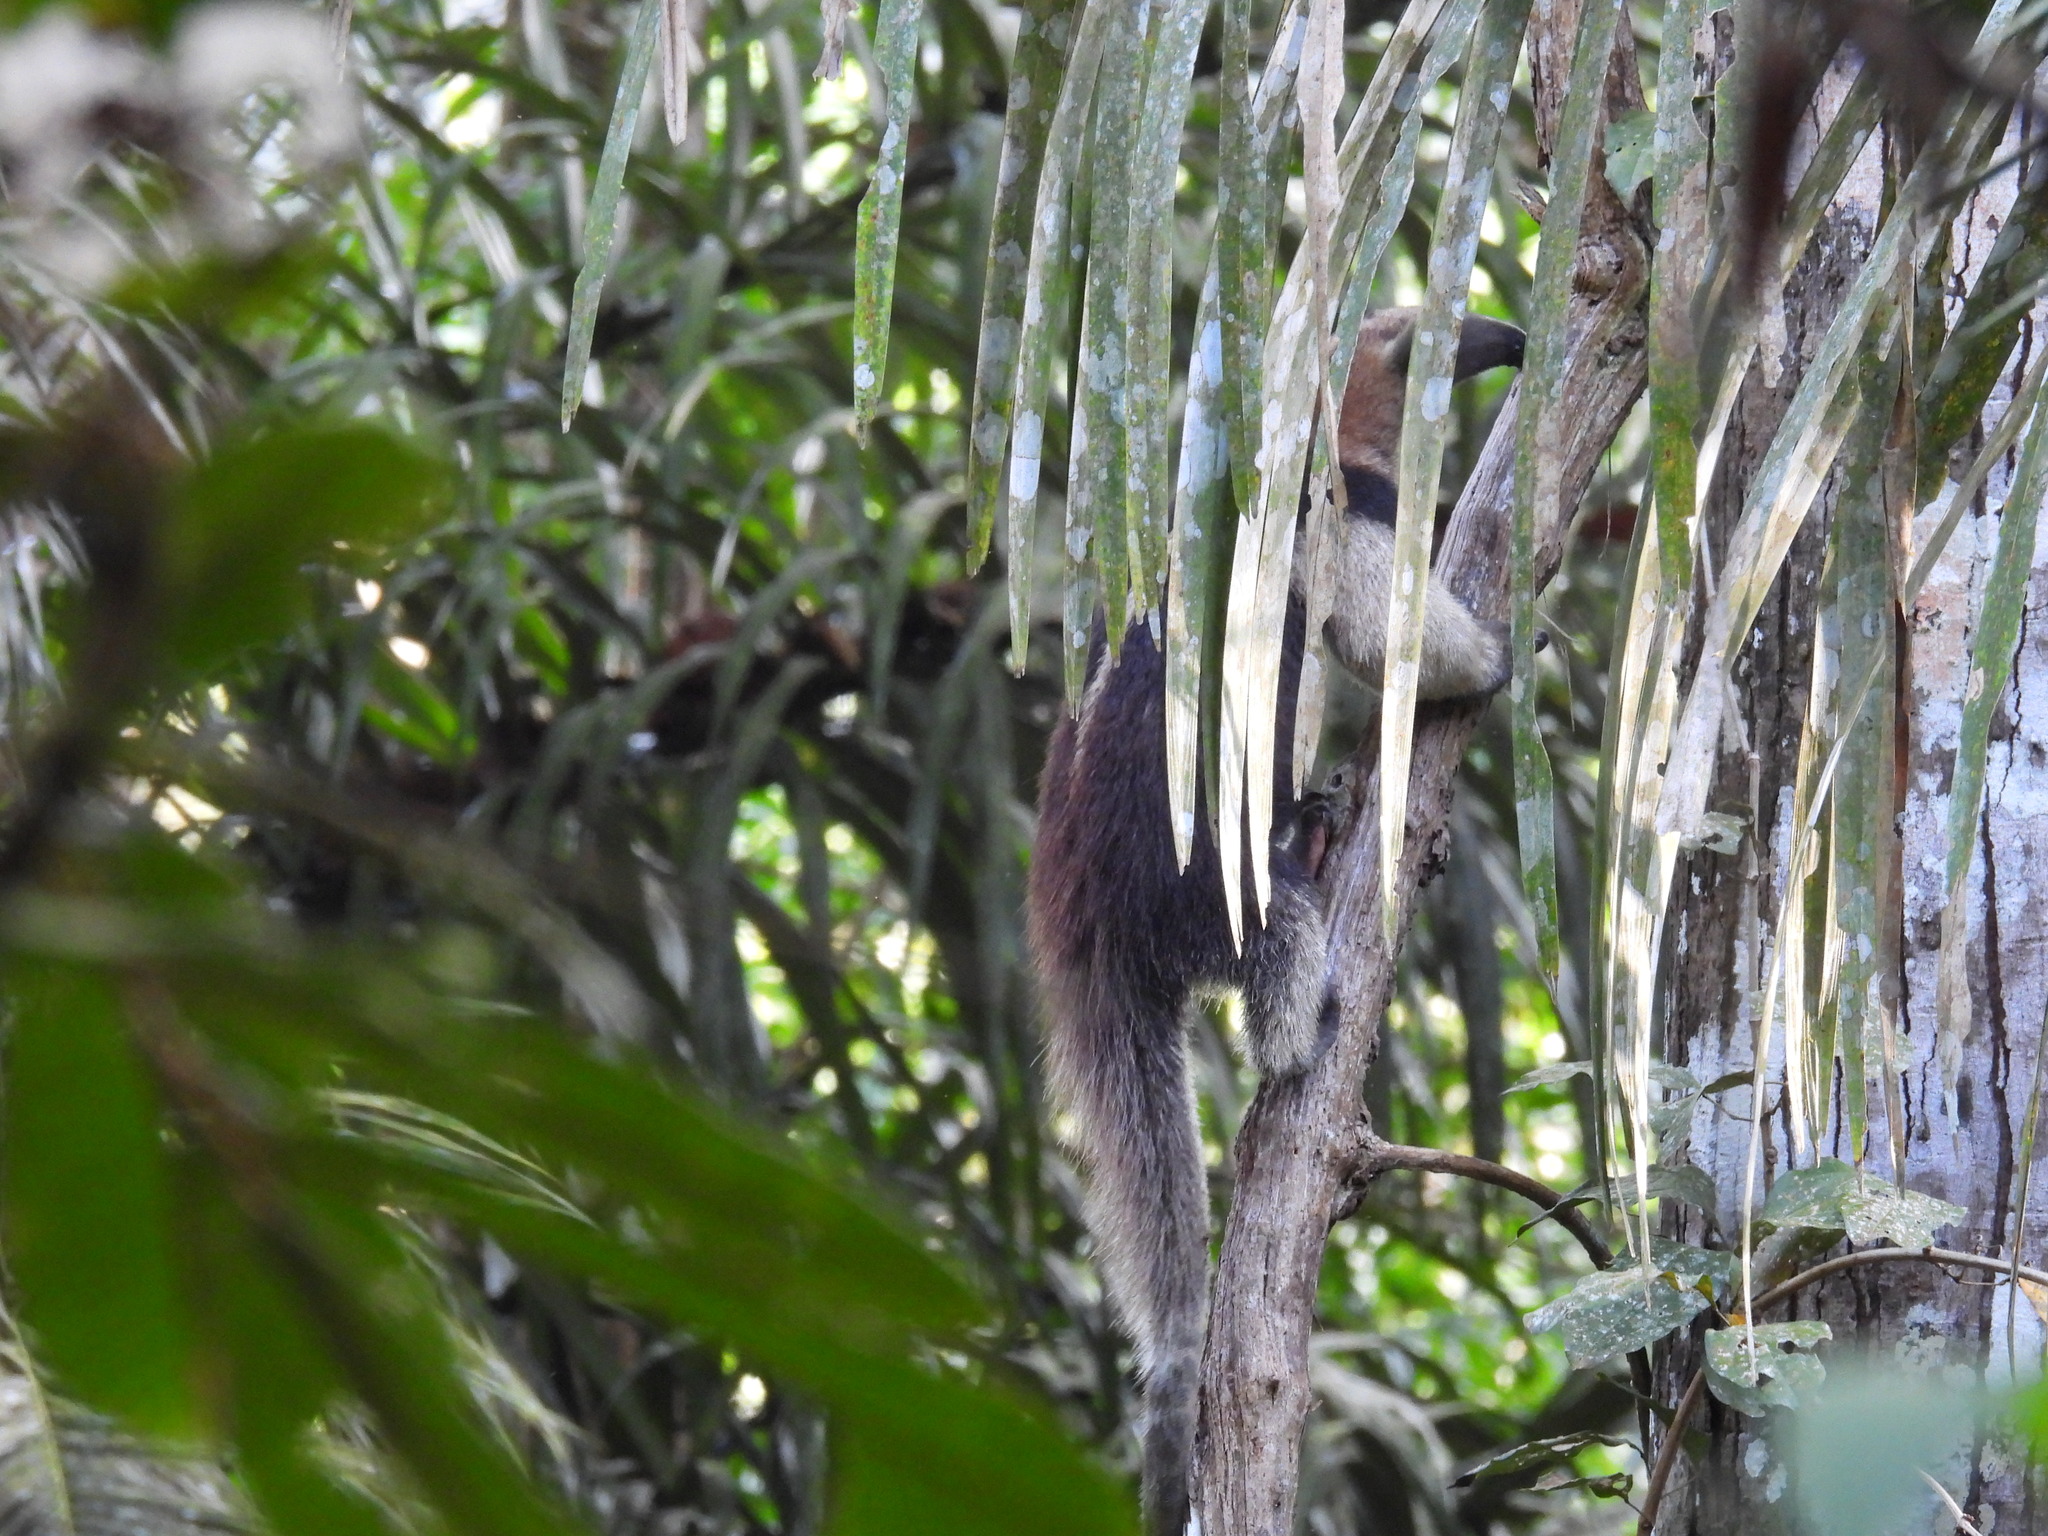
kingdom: Animalia
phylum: Chordata
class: Mammalia
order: Pilosa
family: Myrmecophagidae
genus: Tamandua
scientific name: Tamandua mexicana
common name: Northern tamandua
